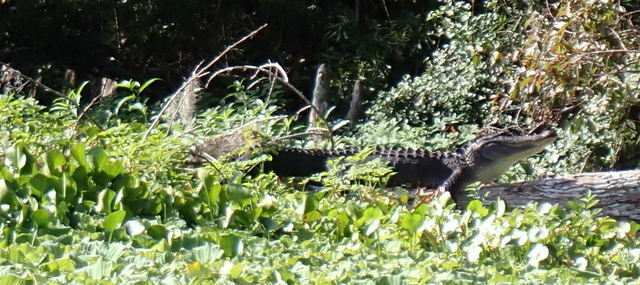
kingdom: Animalia
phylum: Chordata
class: Crocodylia
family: Alligatoridae
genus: Alligator
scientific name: Alligator mississippiensis
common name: American alligator
